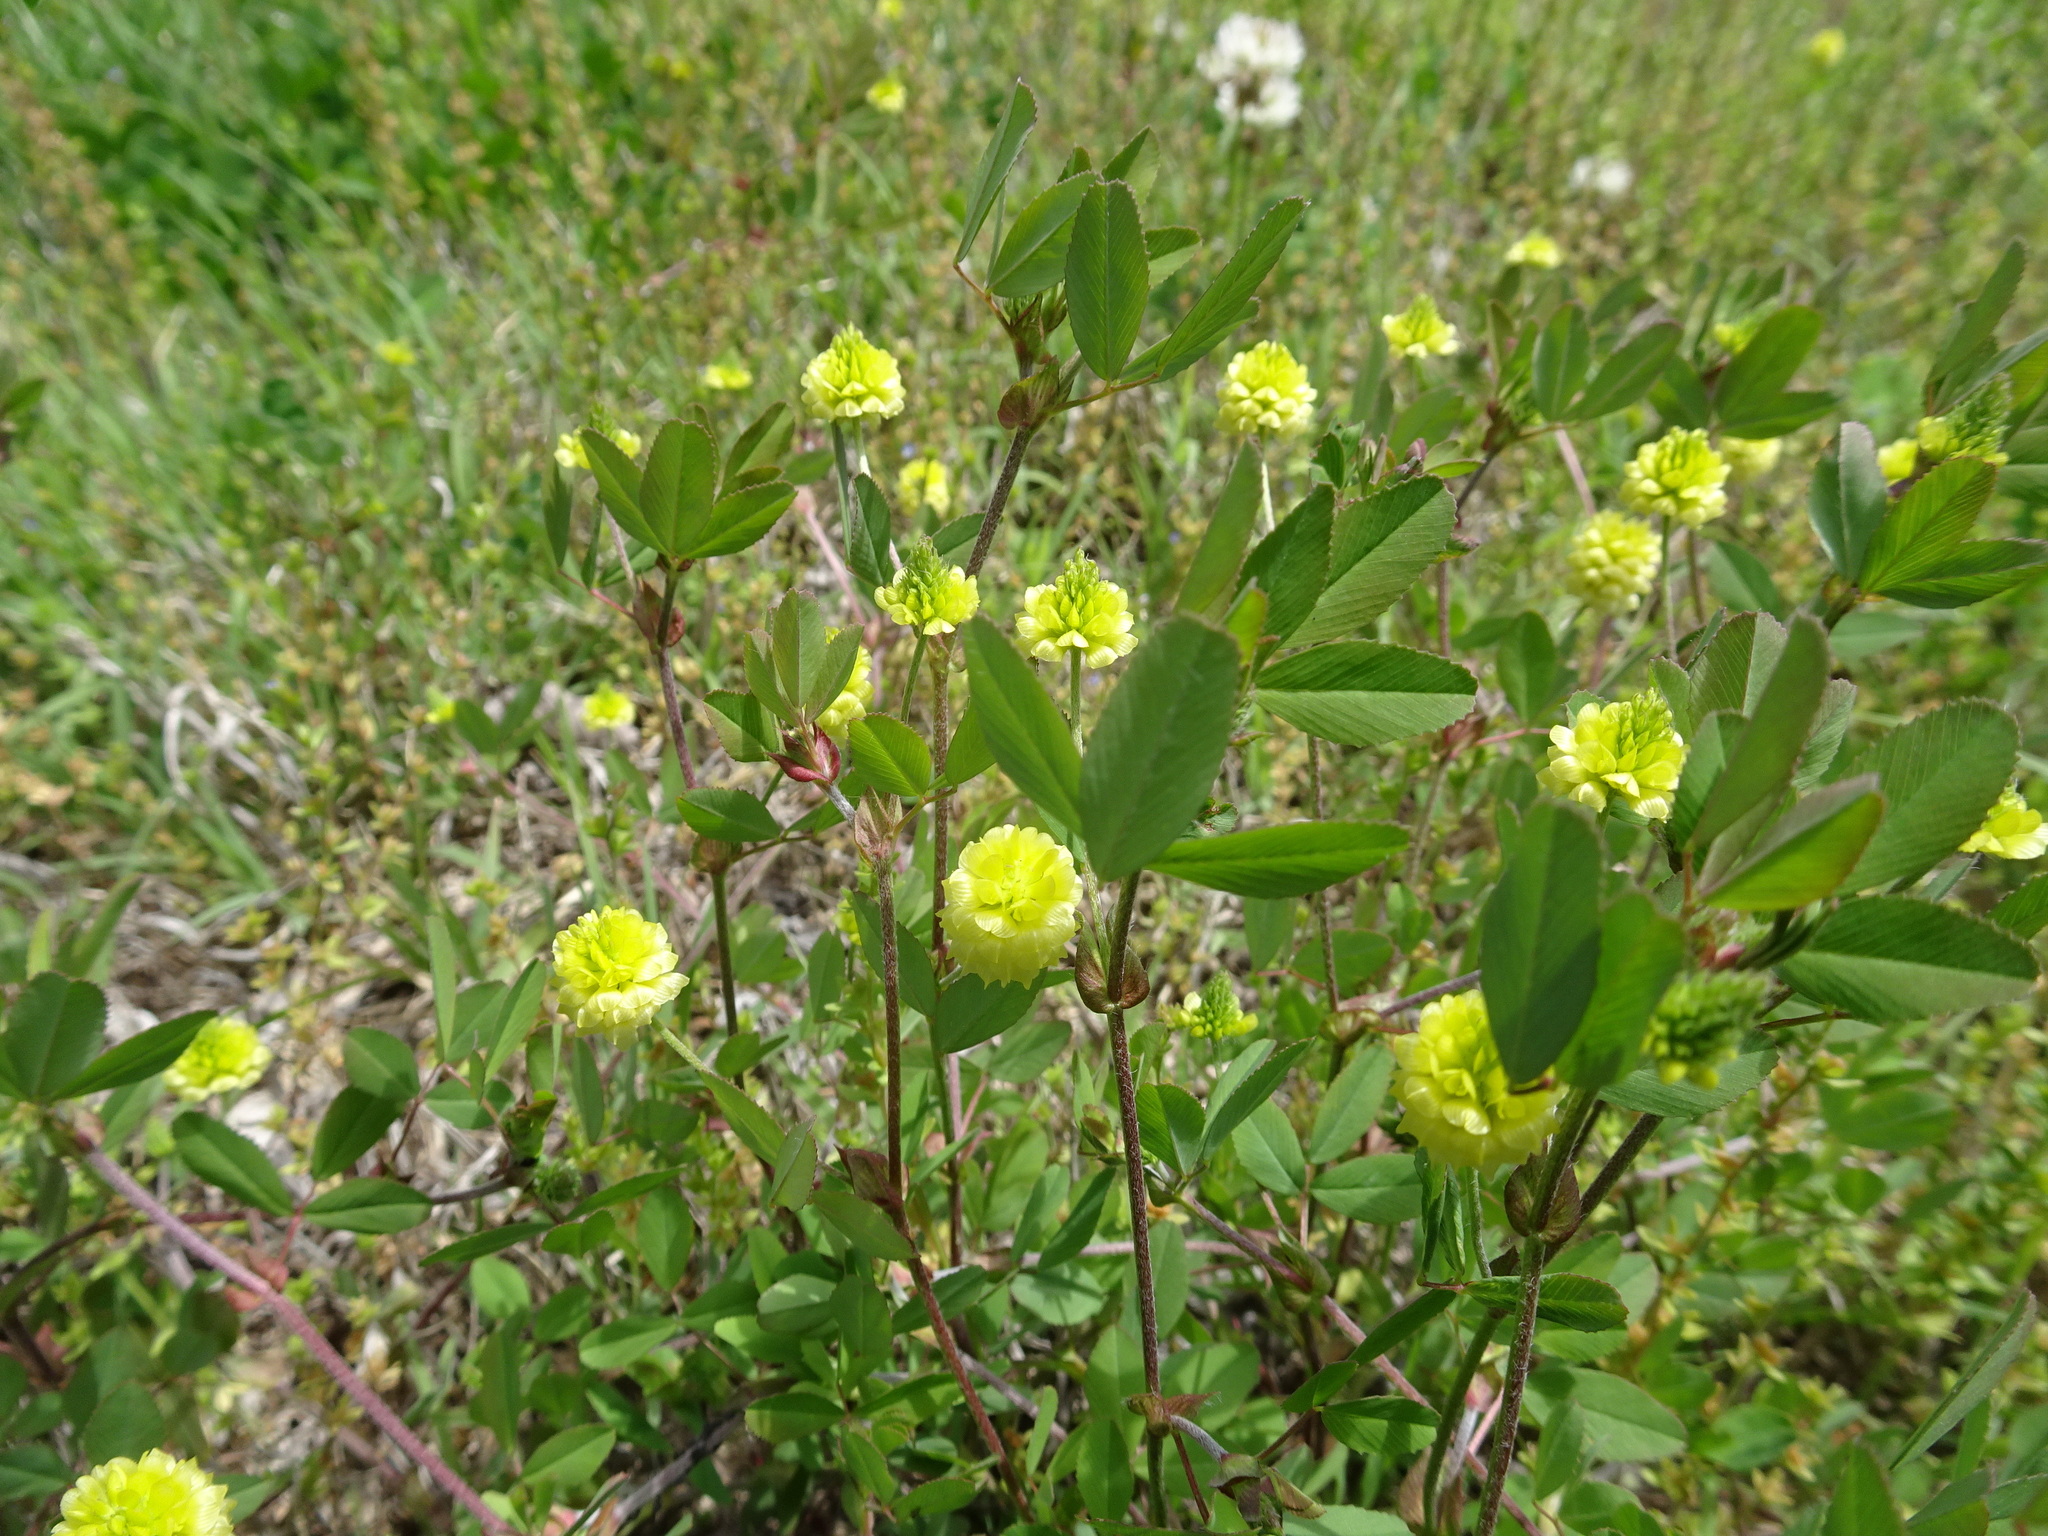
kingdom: Plantae
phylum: Tracheophyta
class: Magnoliopsida
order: Fabales
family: Fabaceae
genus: Trifolium
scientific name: Trifolium campestre
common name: Field clover
